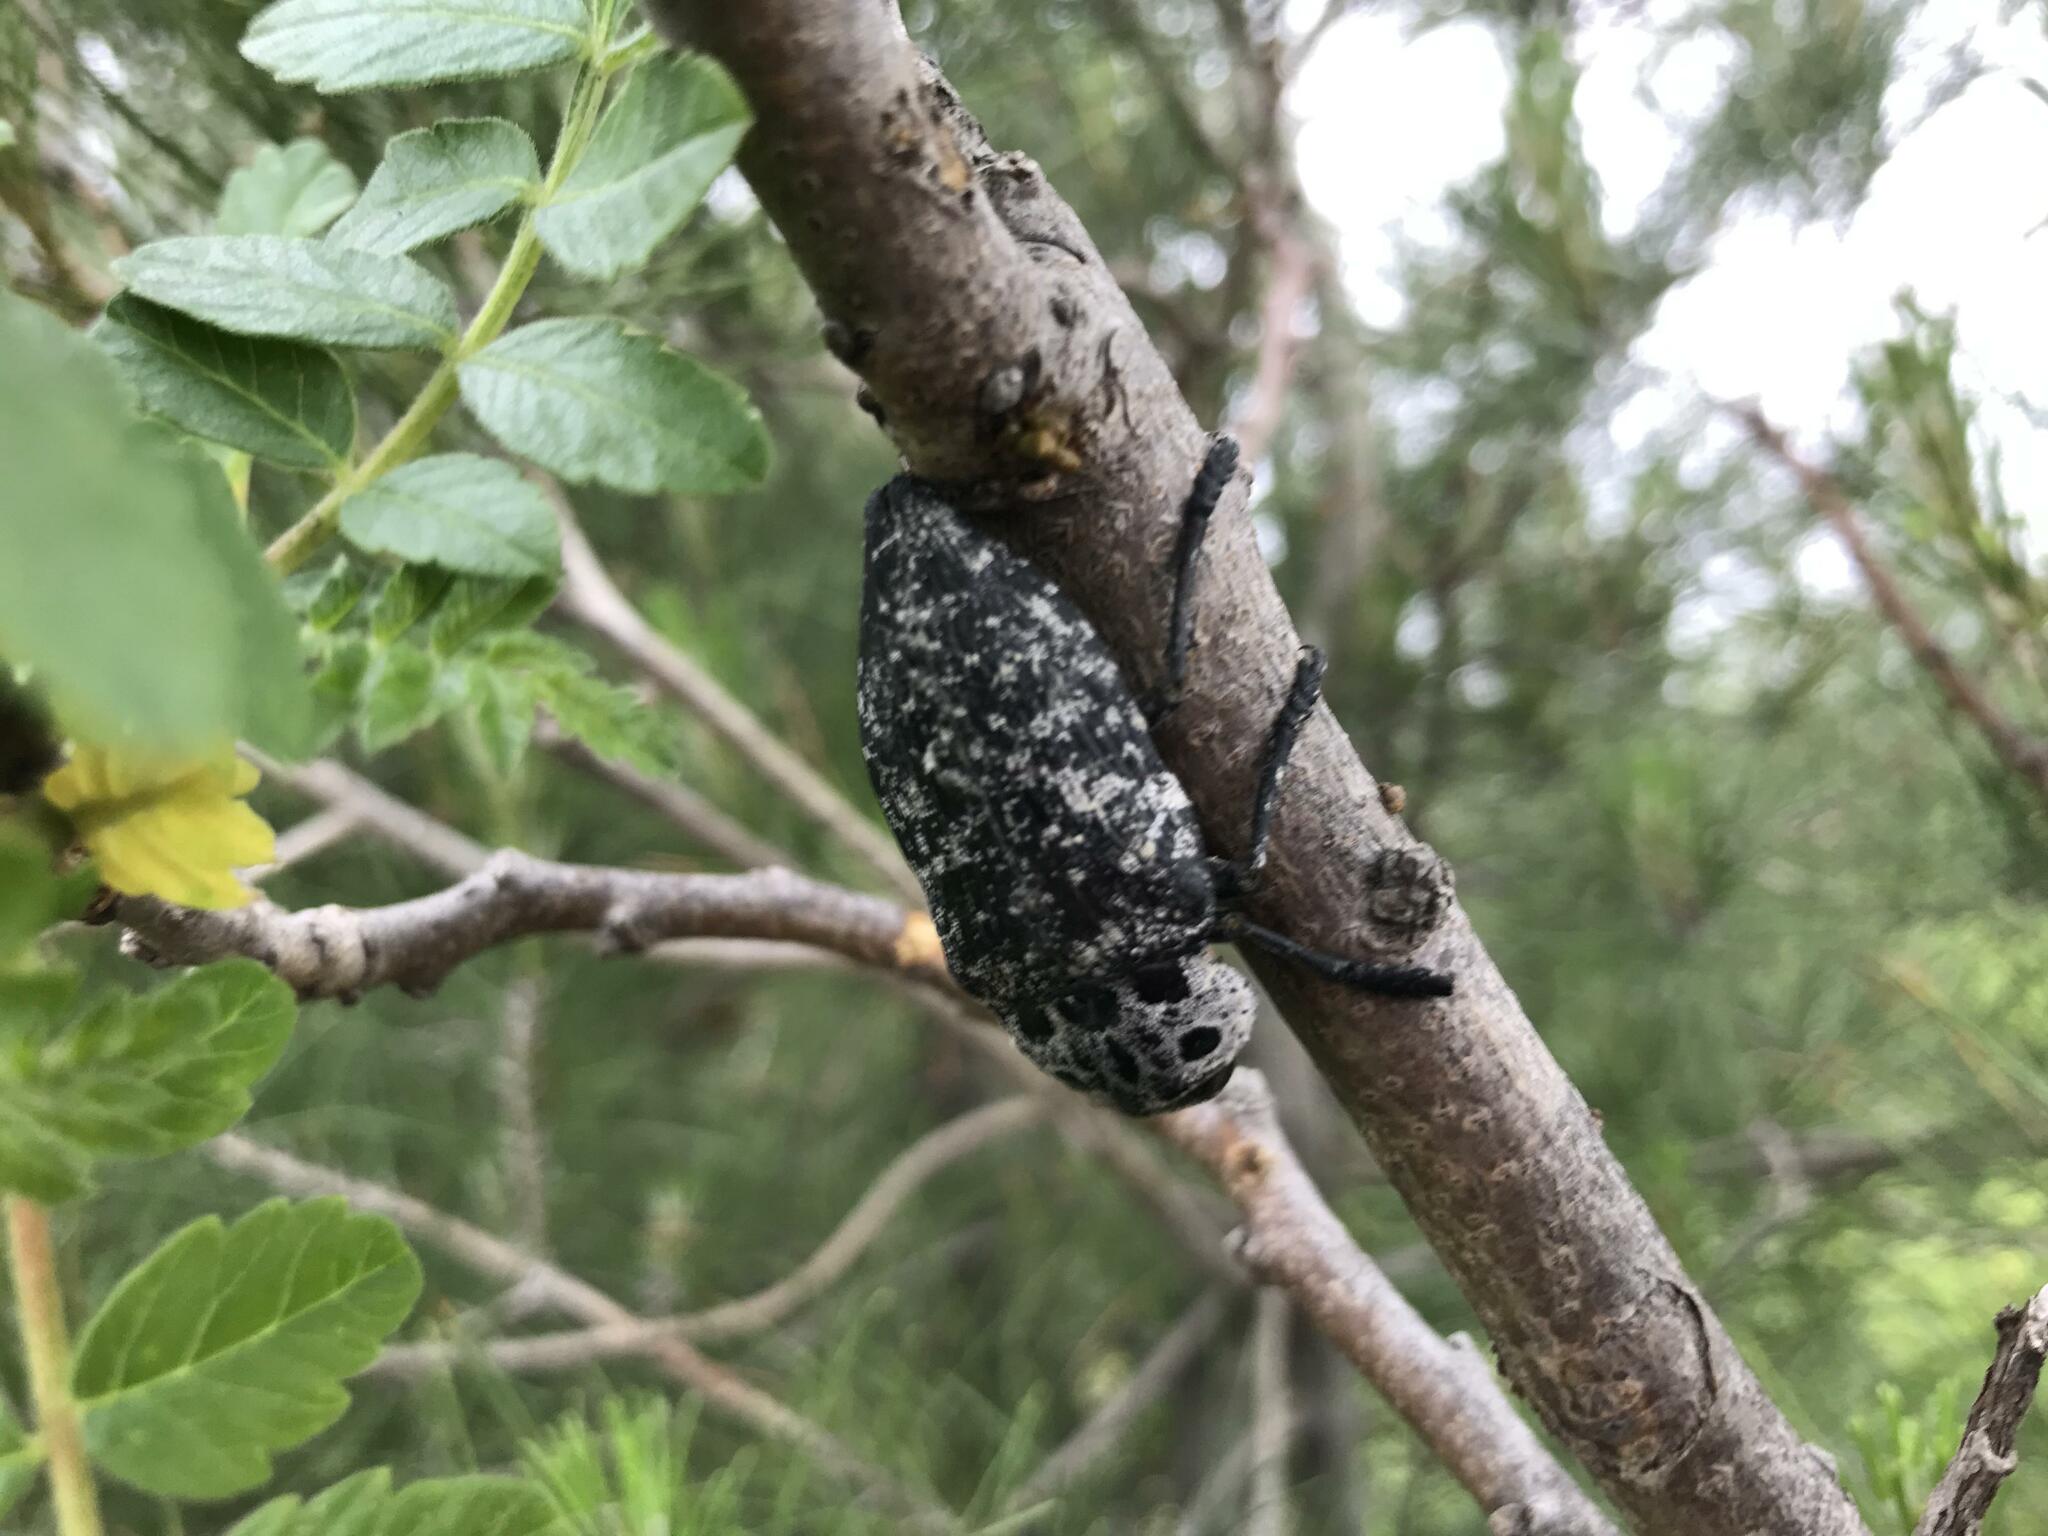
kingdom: Animalia
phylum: Arthropoda
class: Insecta
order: Coleoptera
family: Buprestidae
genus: Capnodis
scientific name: Capnodis cariosa
